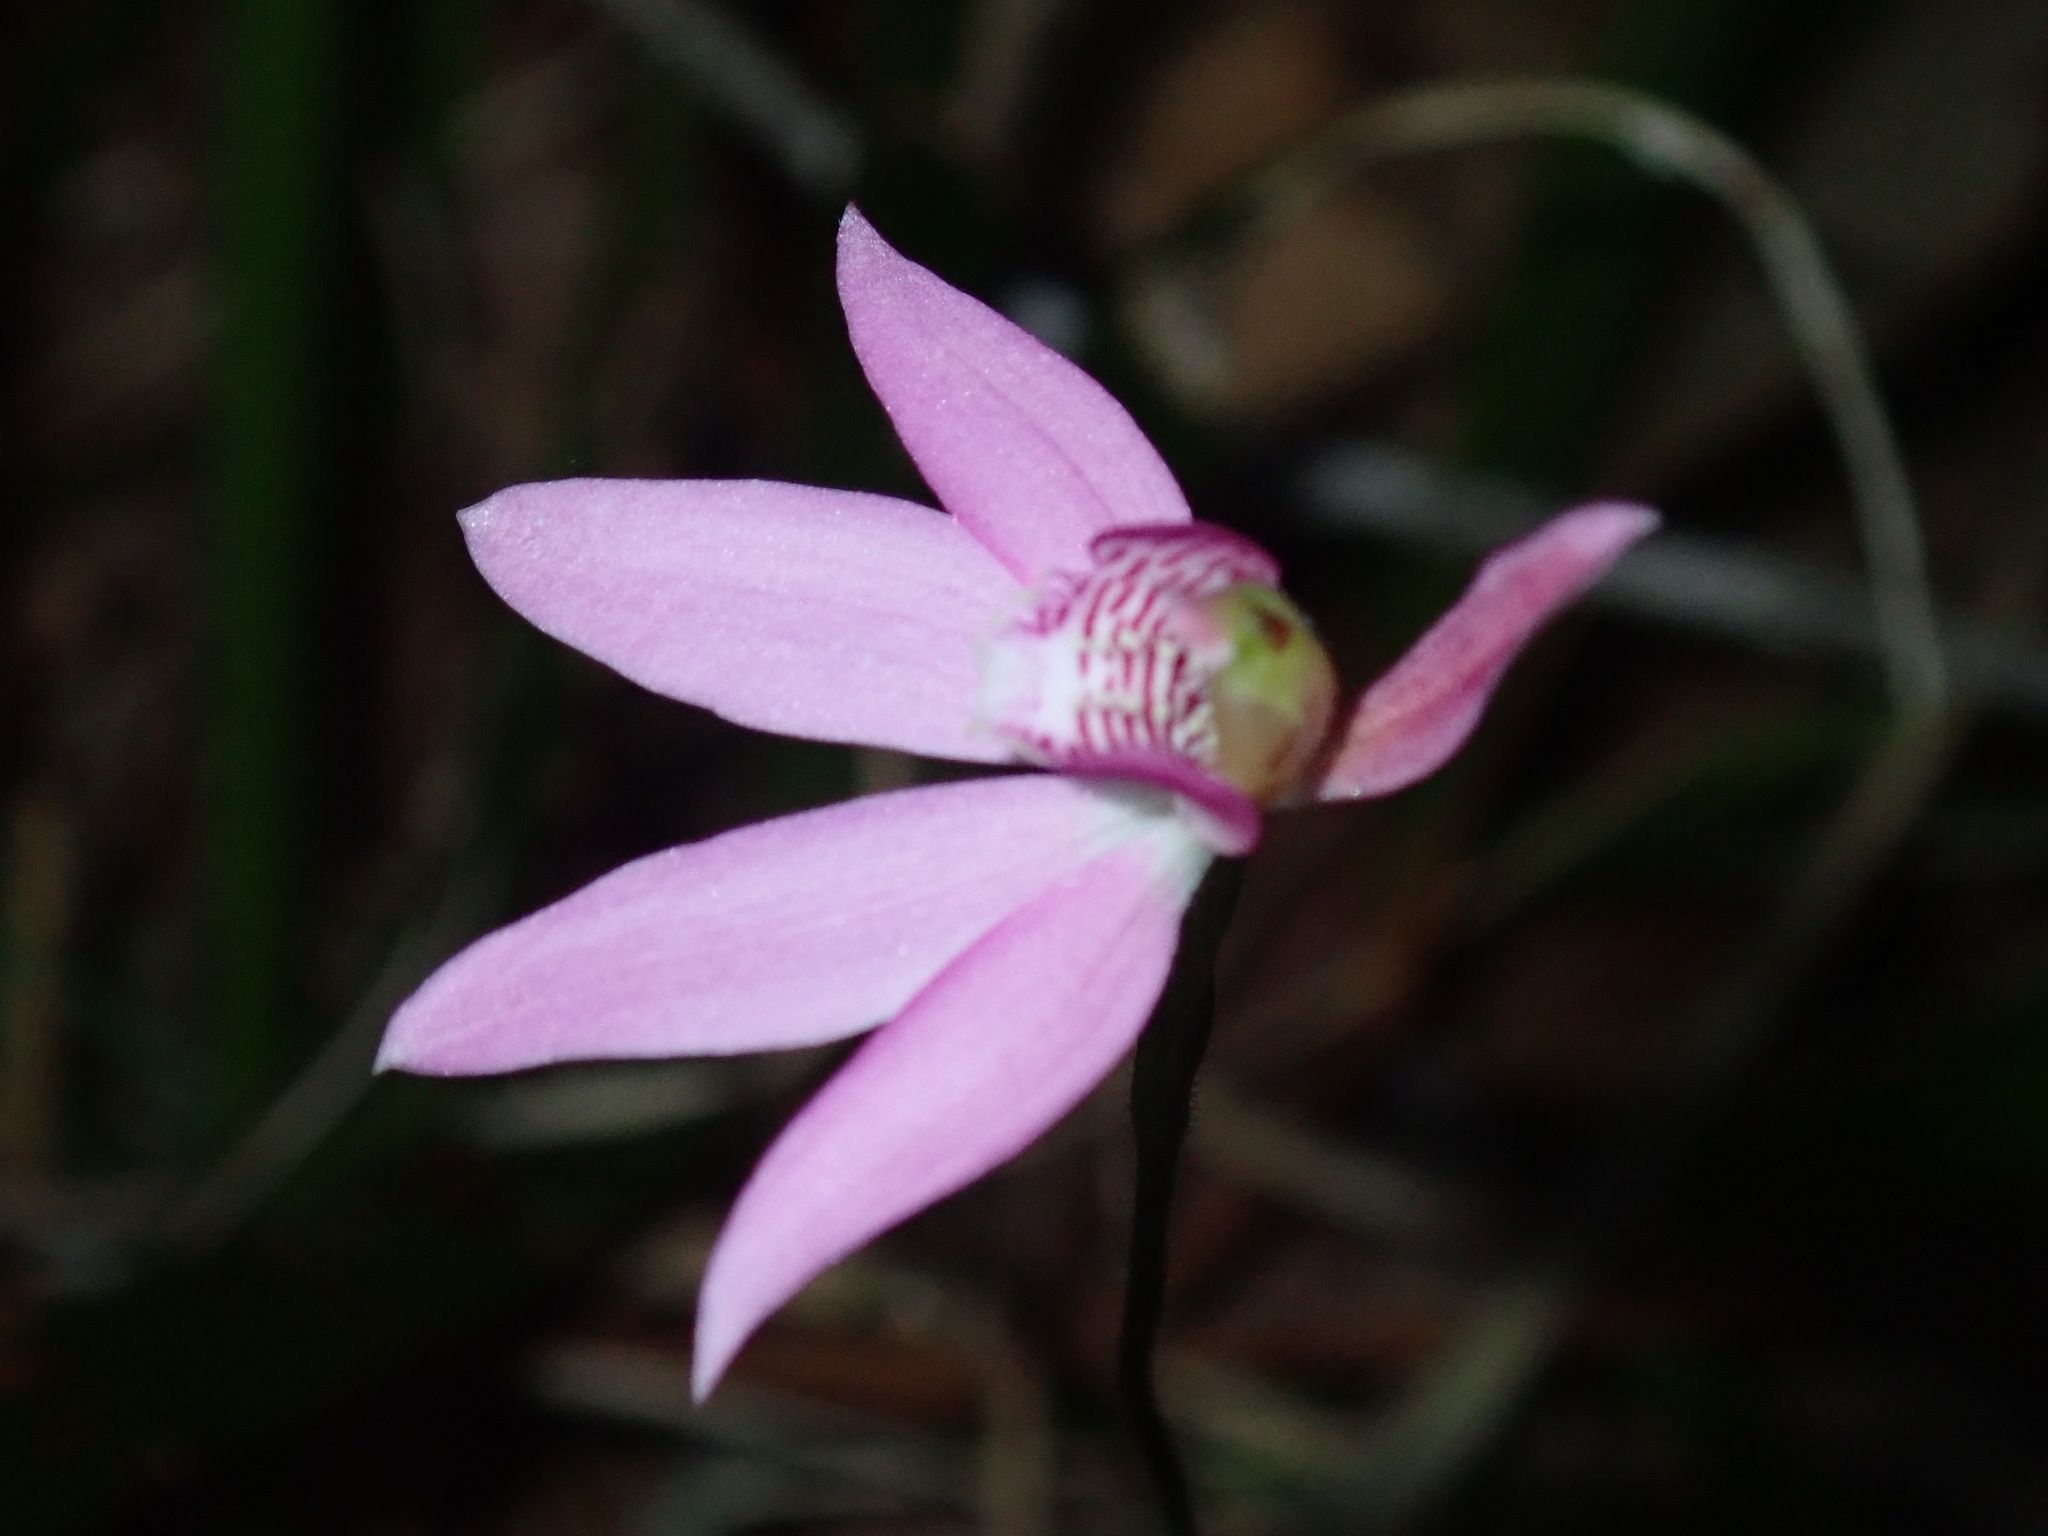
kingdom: Plantae
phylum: Tracheophyta
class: Liliopsida
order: Asparagales
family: Orchidaceae
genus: Caladenia
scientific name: Caladenia quadrifaria
